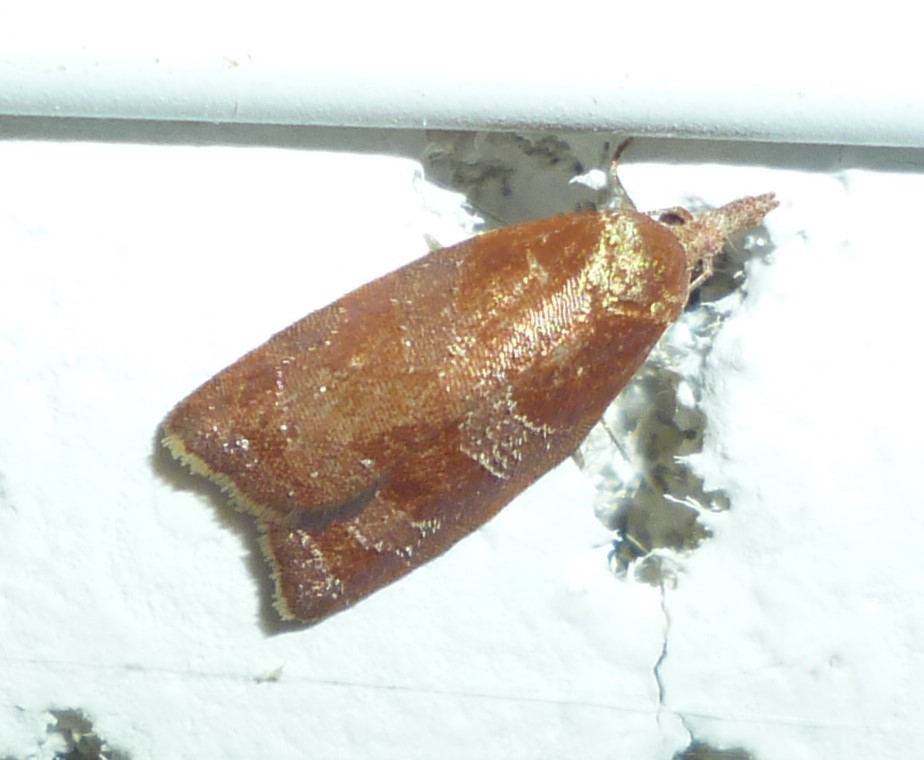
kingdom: Animalia
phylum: Arthropoda
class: Insecta
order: Lepidoptera
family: Tortricidae
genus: Cenopis
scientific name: Cenopis diluticostana
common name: Spring dead-leaf roller moth
